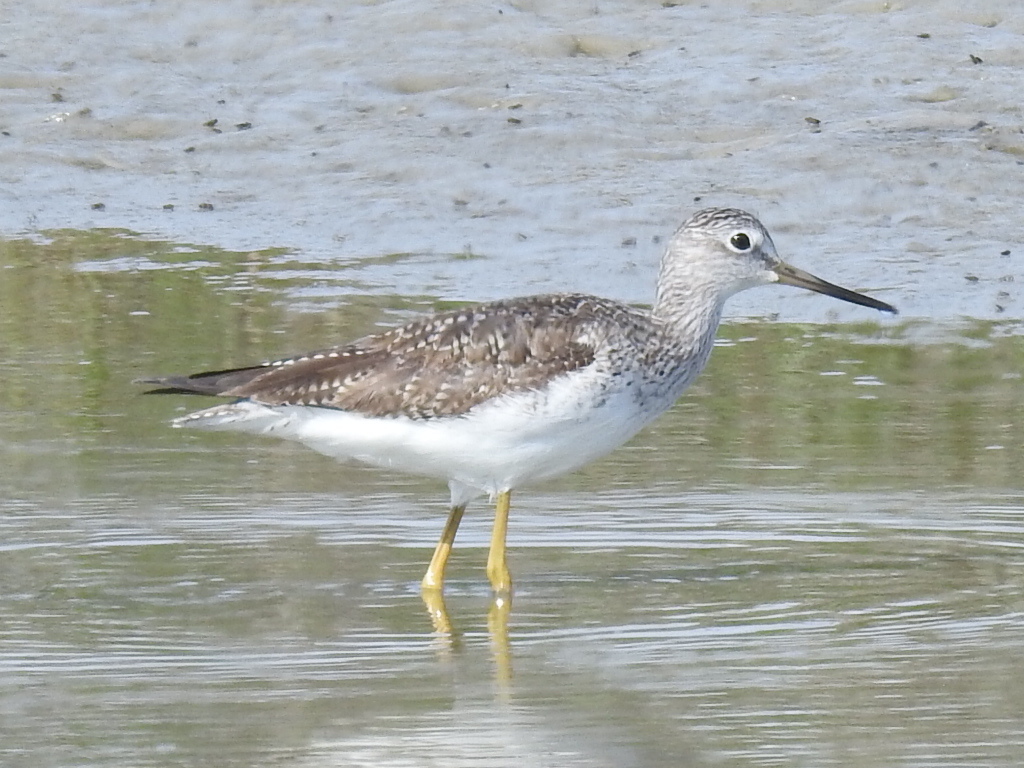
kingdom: Animalia
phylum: Chordata
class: Aves
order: Charadriiformes
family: Scolopacidae
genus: Tringa
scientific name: Tringa melanoleuca
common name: Greater yellowlegs
